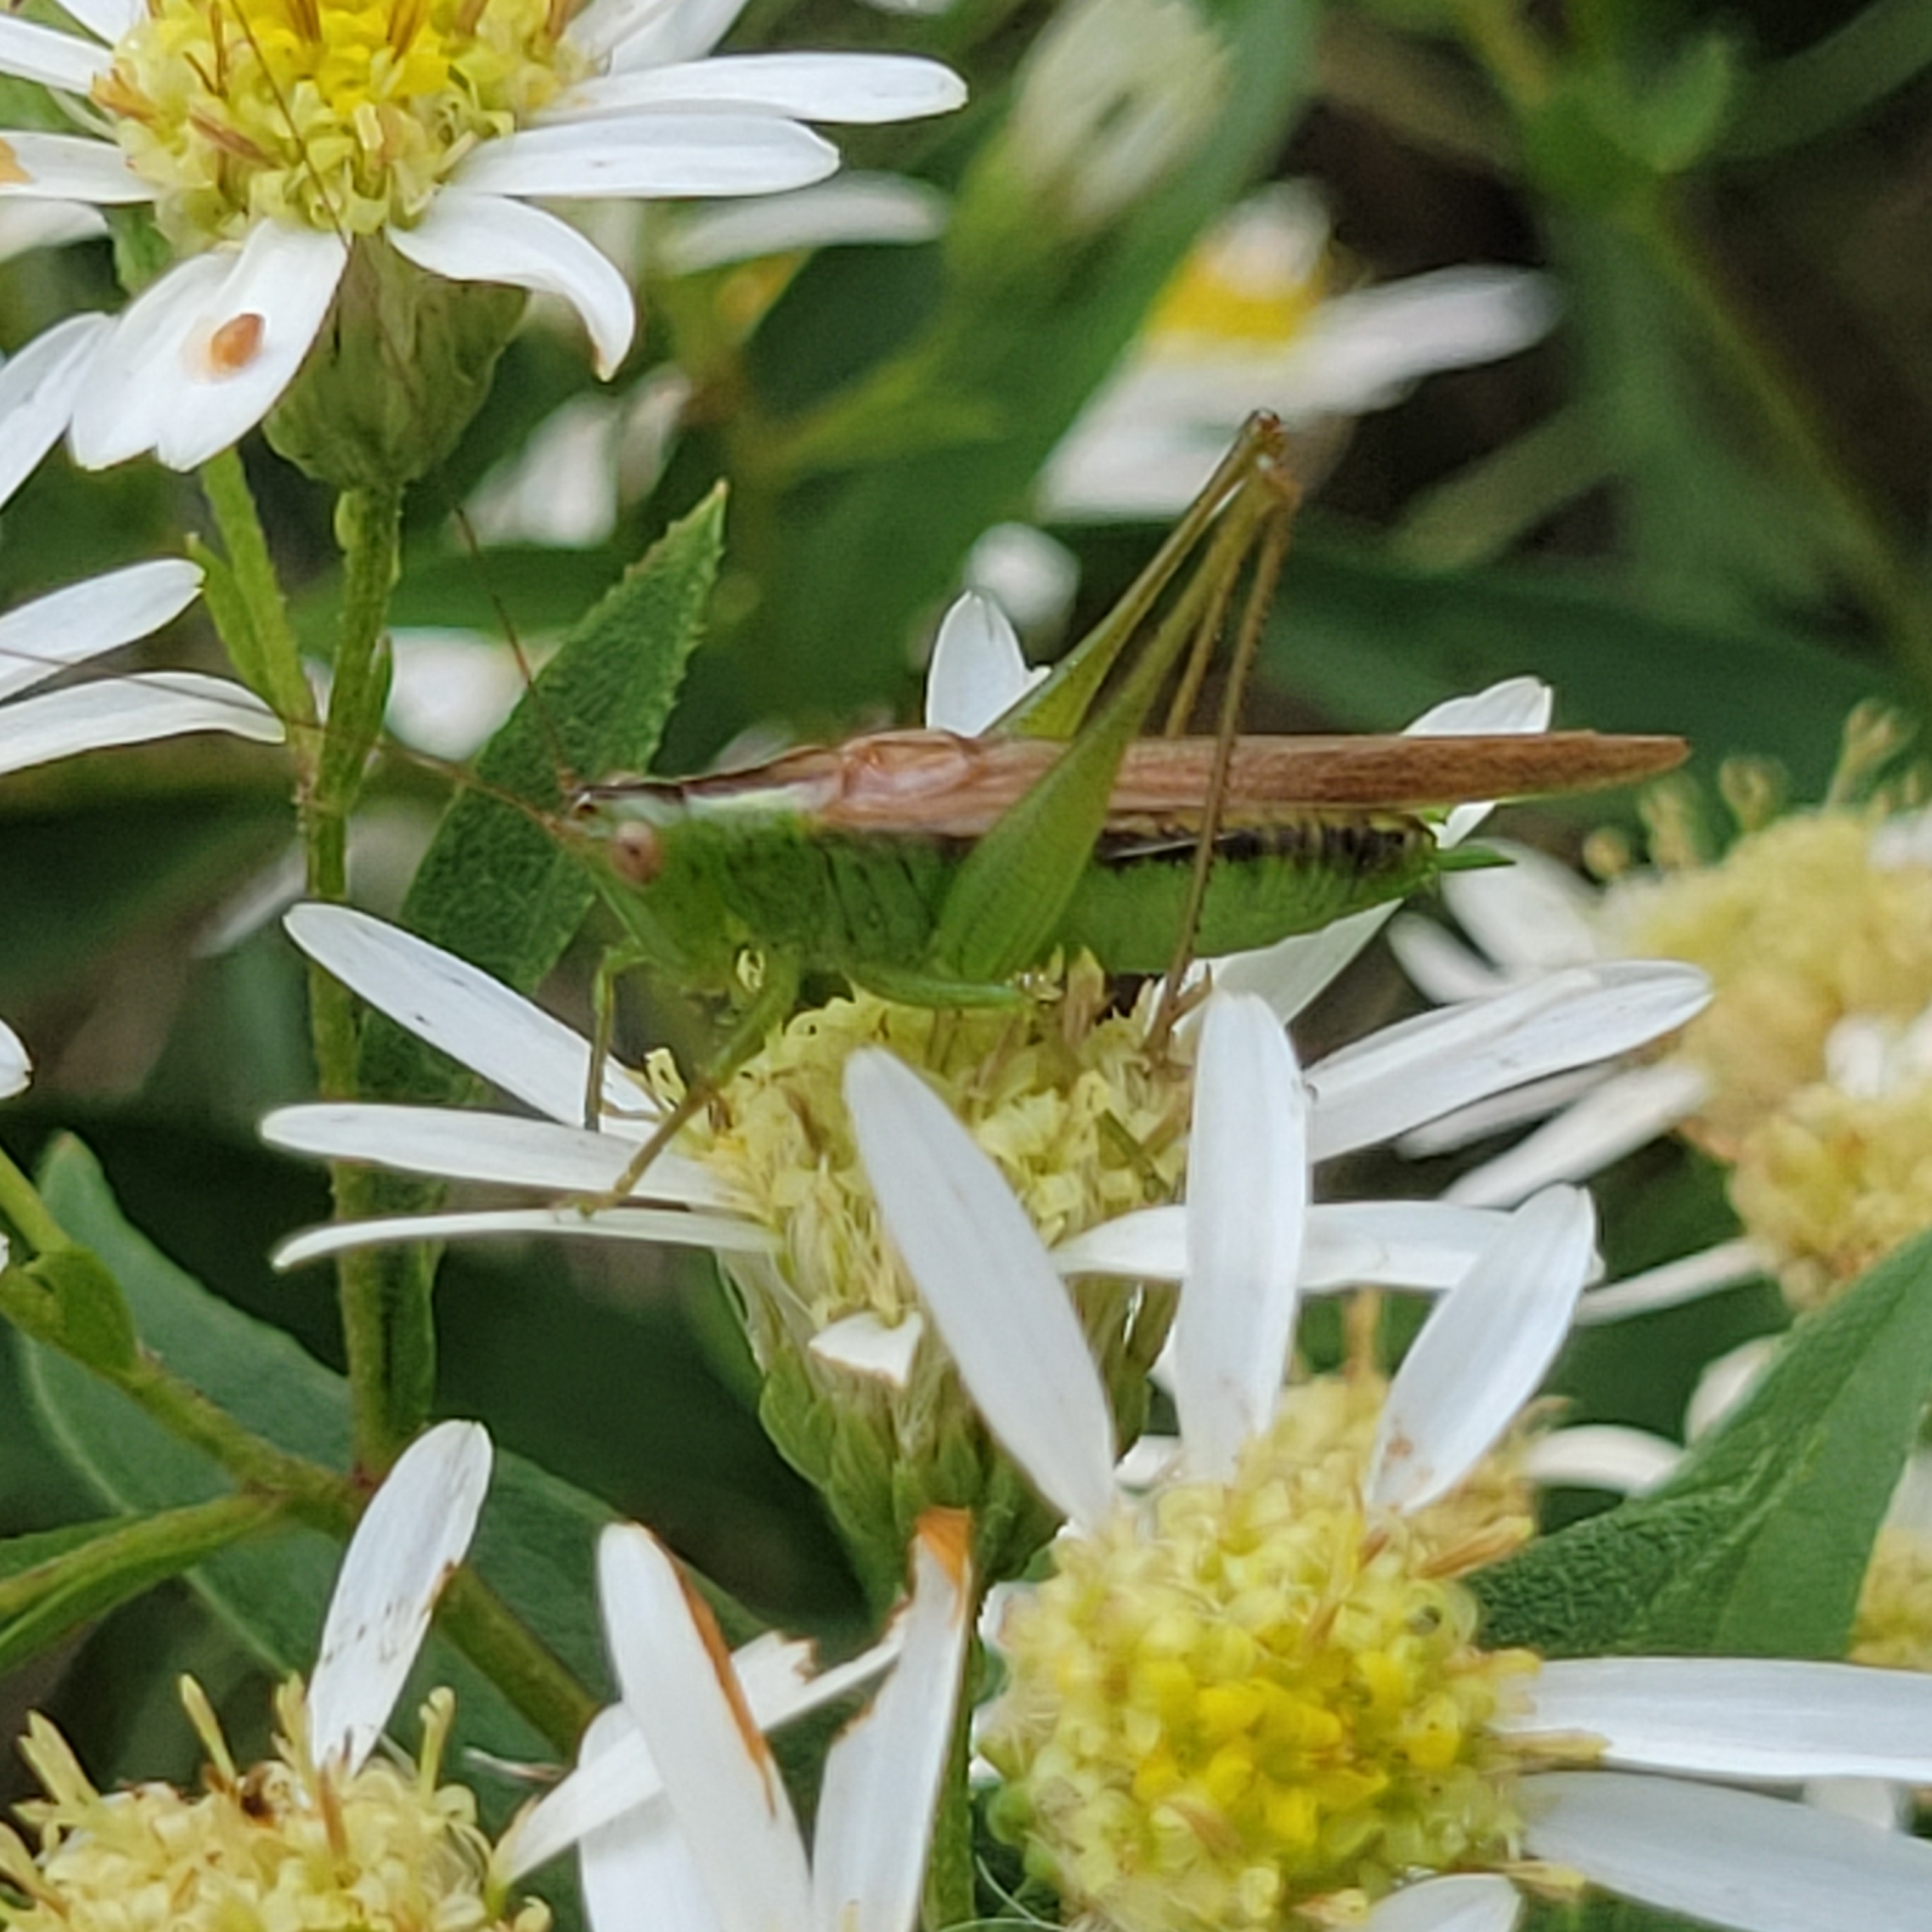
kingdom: Animalia
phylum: Arthropoda
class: Insecta
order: Orthoptera
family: Tettigoniidae
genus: Conocephalus
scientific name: Conocephalus fasciatus
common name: Slender meadow katydid
